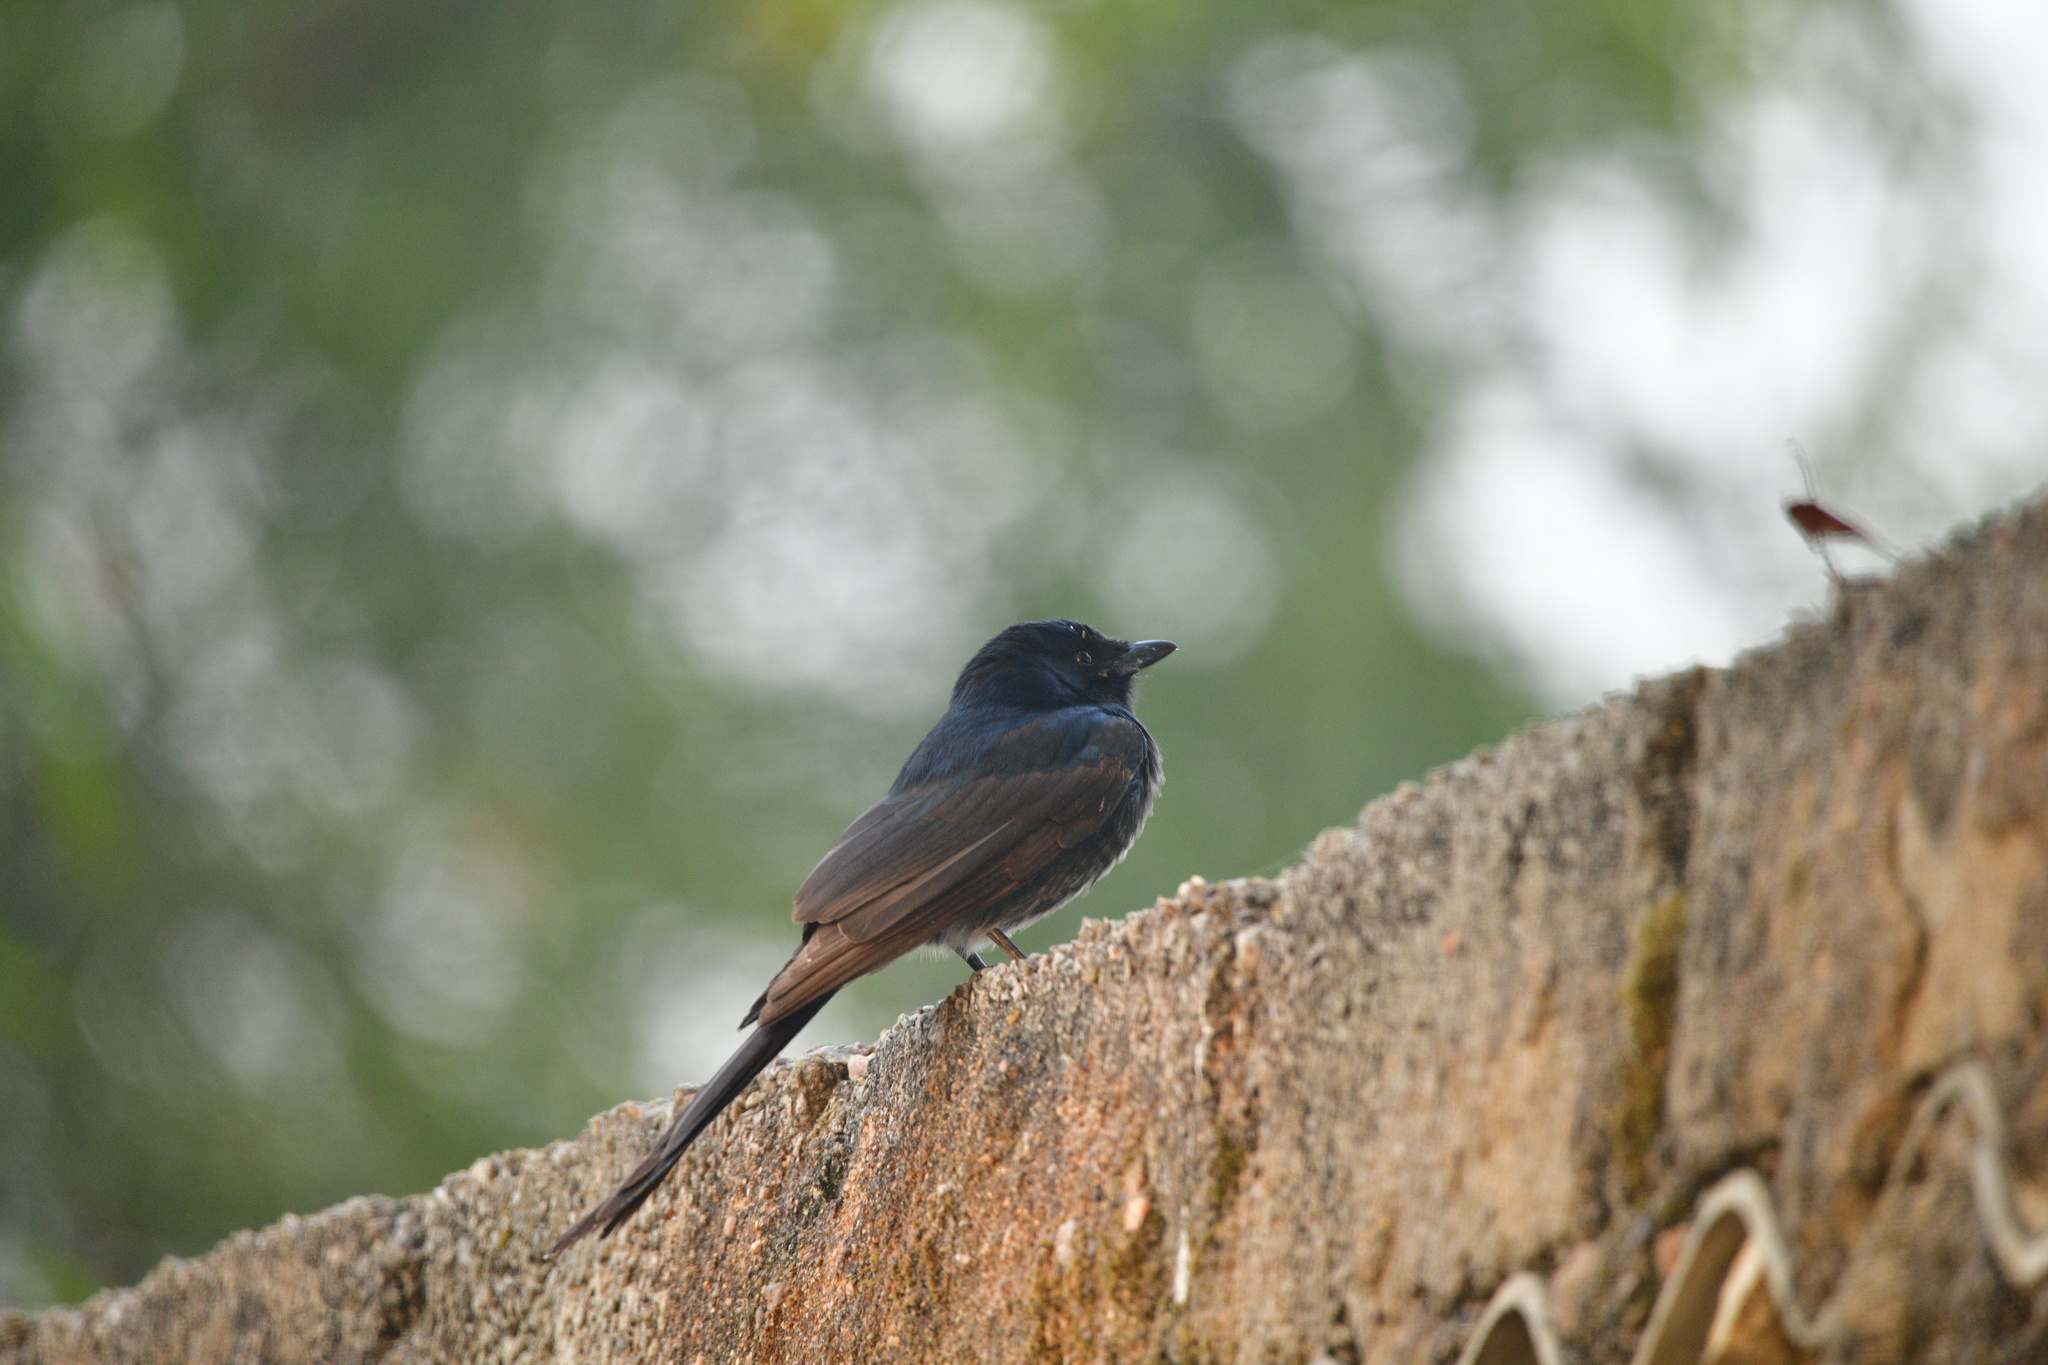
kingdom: Animalia
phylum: Chordata
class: Aves
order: Passeriformes
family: Dicruridae
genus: Dicrurus
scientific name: Dicrurus macrocercus
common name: Black drongo
